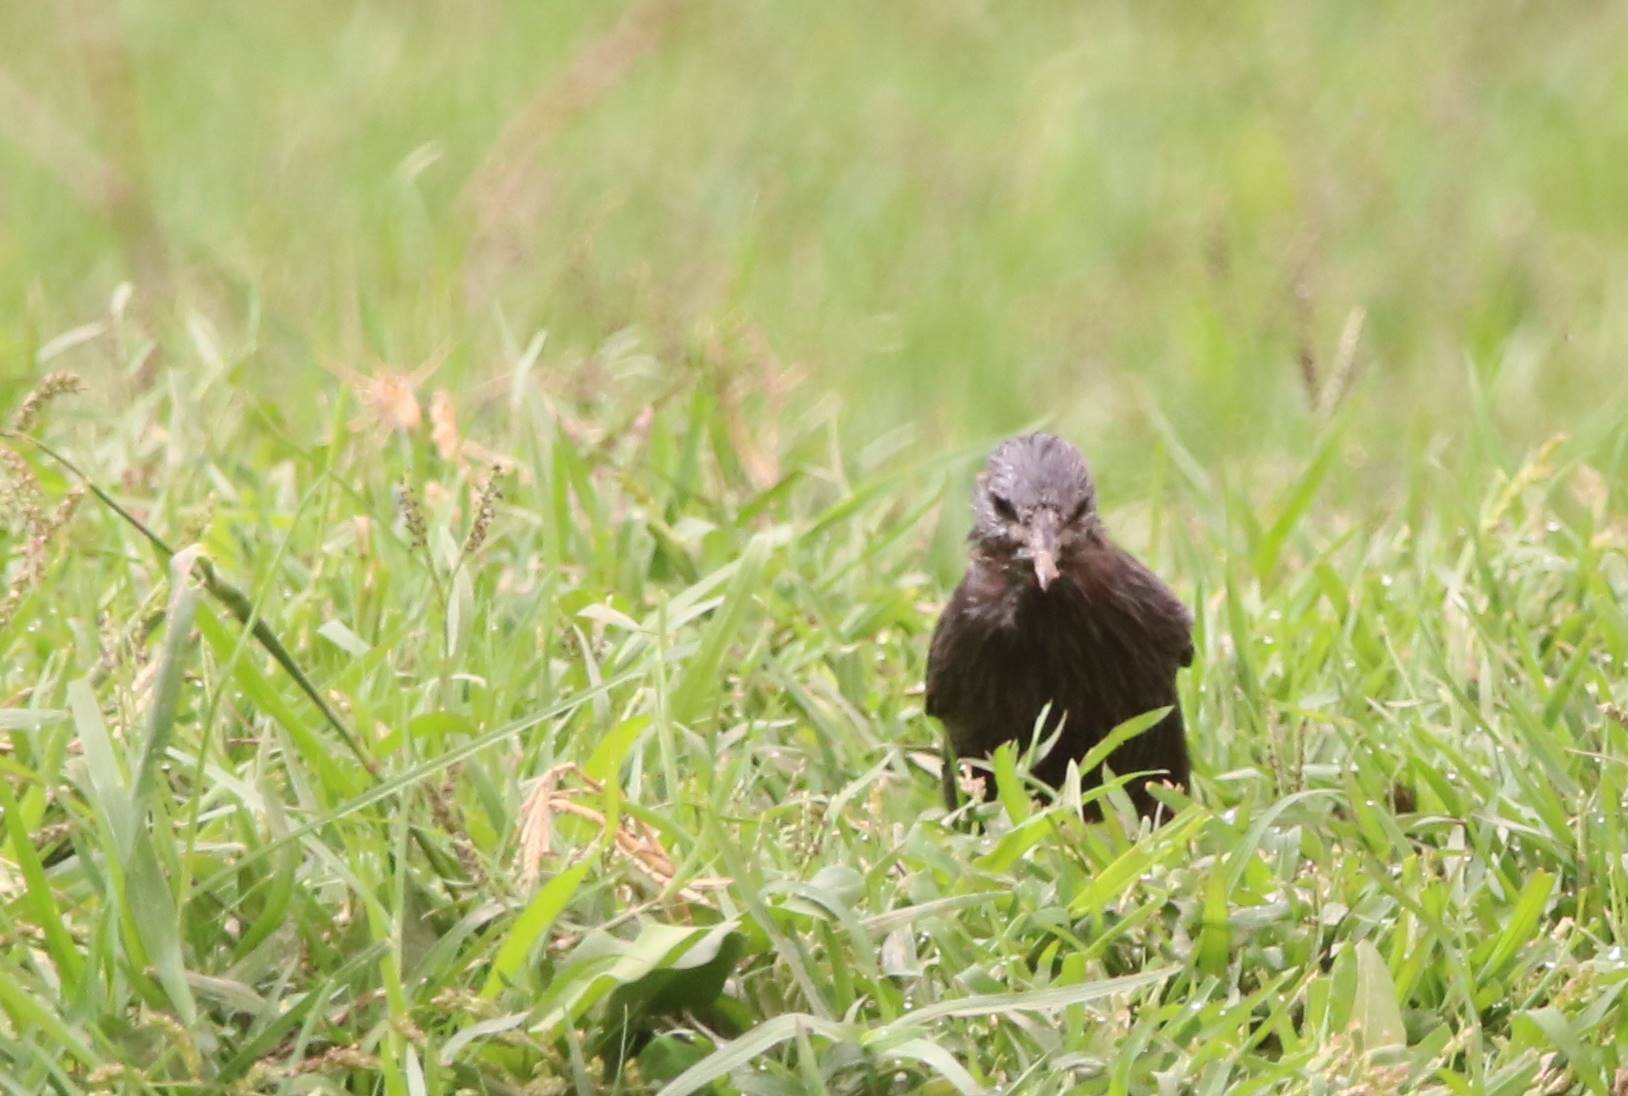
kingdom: Animalia
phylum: Chordata
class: Aves
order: Passeriformes
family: Sturnidae
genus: Sturnus
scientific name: Sturnus unicolor
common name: Spotless starling
